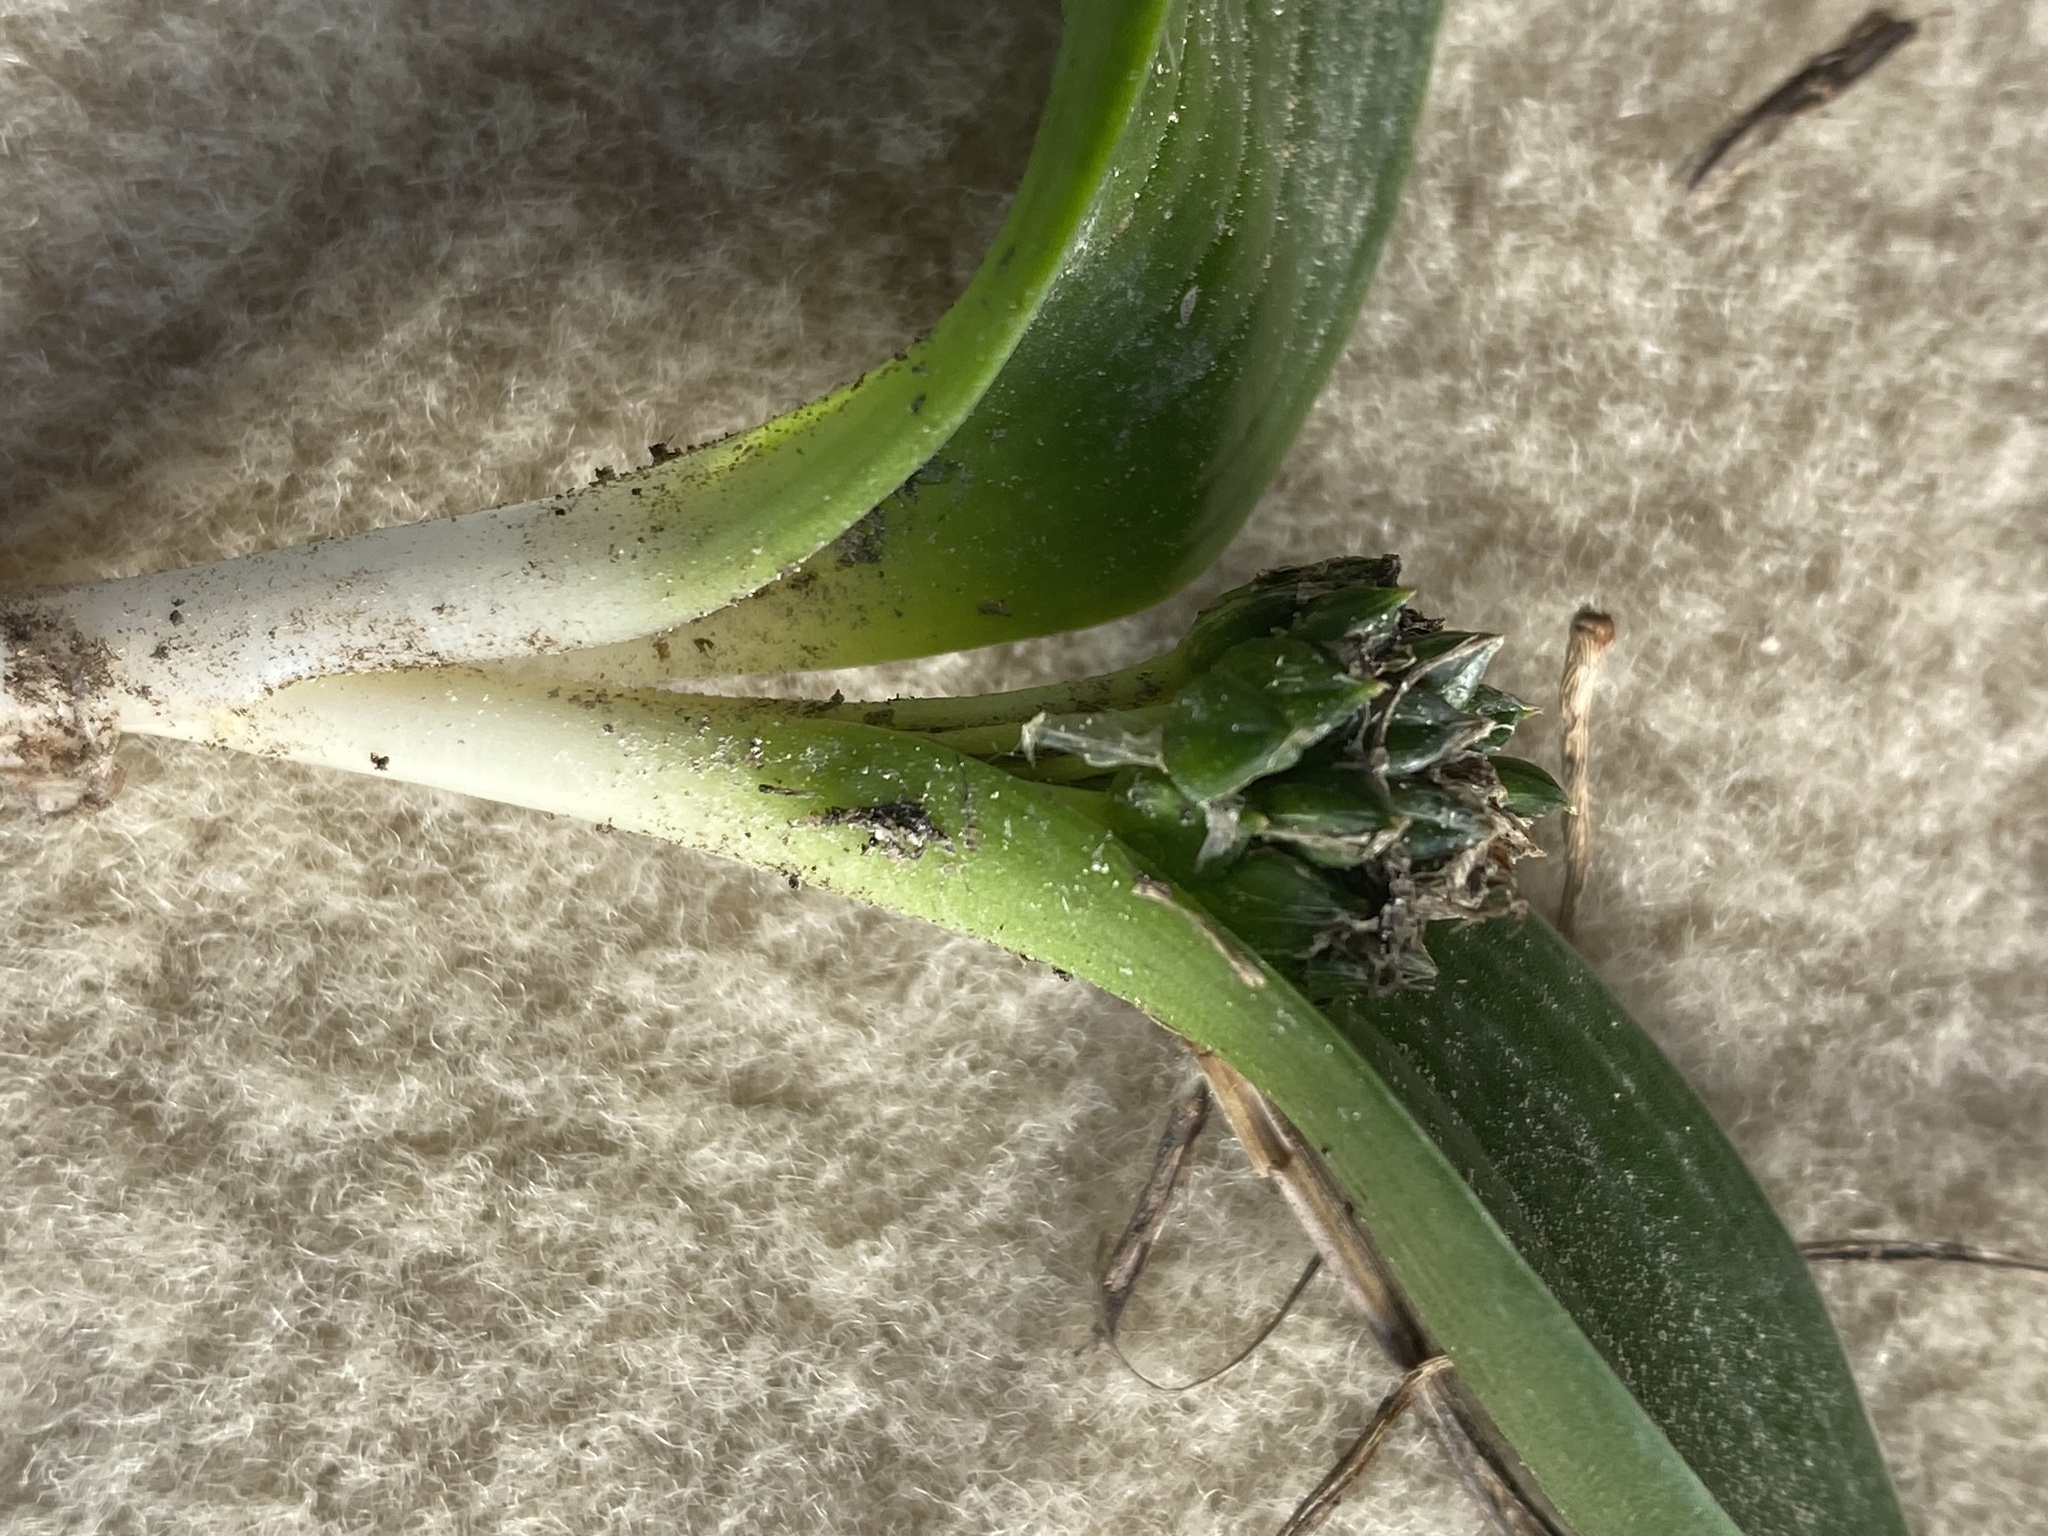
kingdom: Plantae
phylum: Tracheophyta
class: Liliopsida
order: Asparagales
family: Asparagaceae
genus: Lachenalia
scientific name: Lachenalia ensifolia
